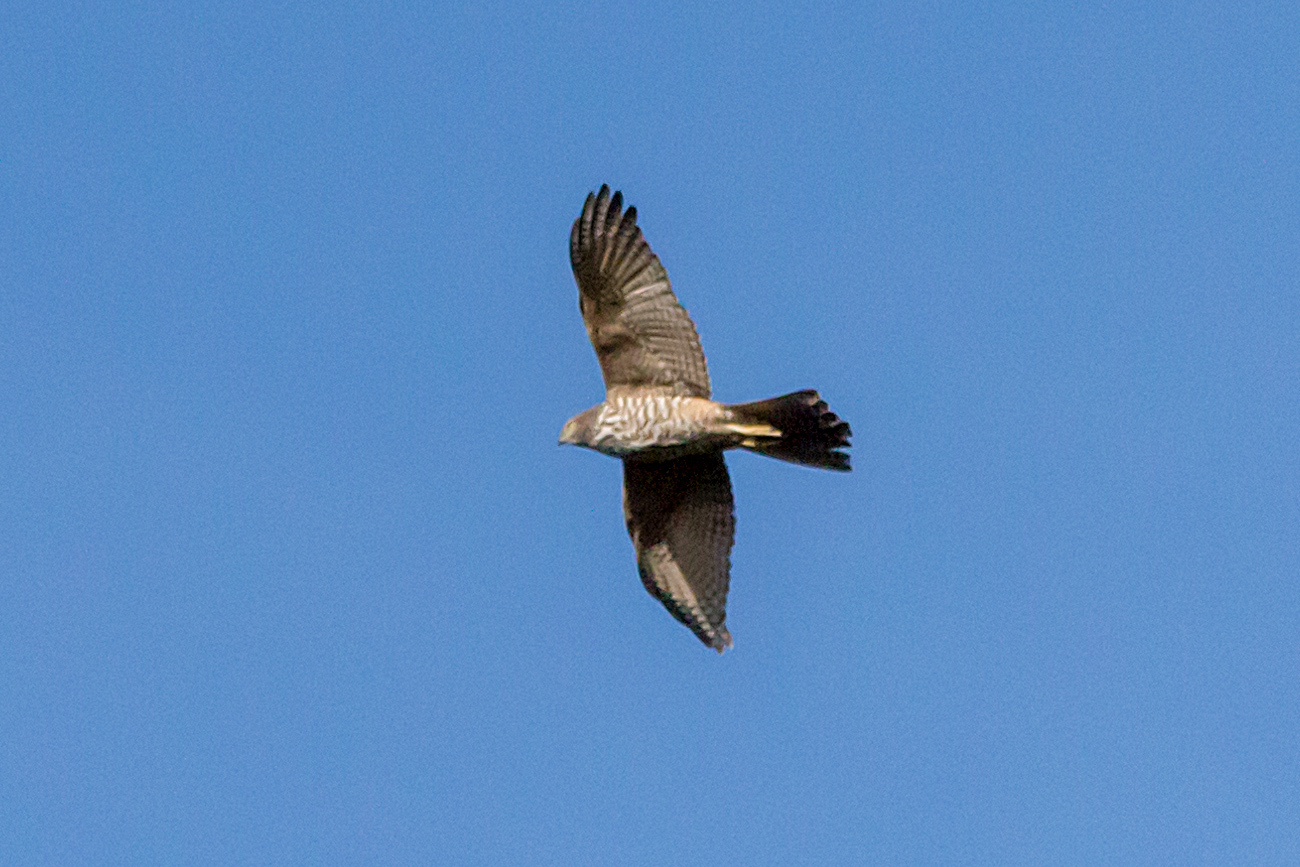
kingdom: Animalia
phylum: Chordata
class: Aves
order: Accipitriformes
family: Accipitridae
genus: Accipiter
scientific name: Accipiter fasciatus
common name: Brown goshawk
